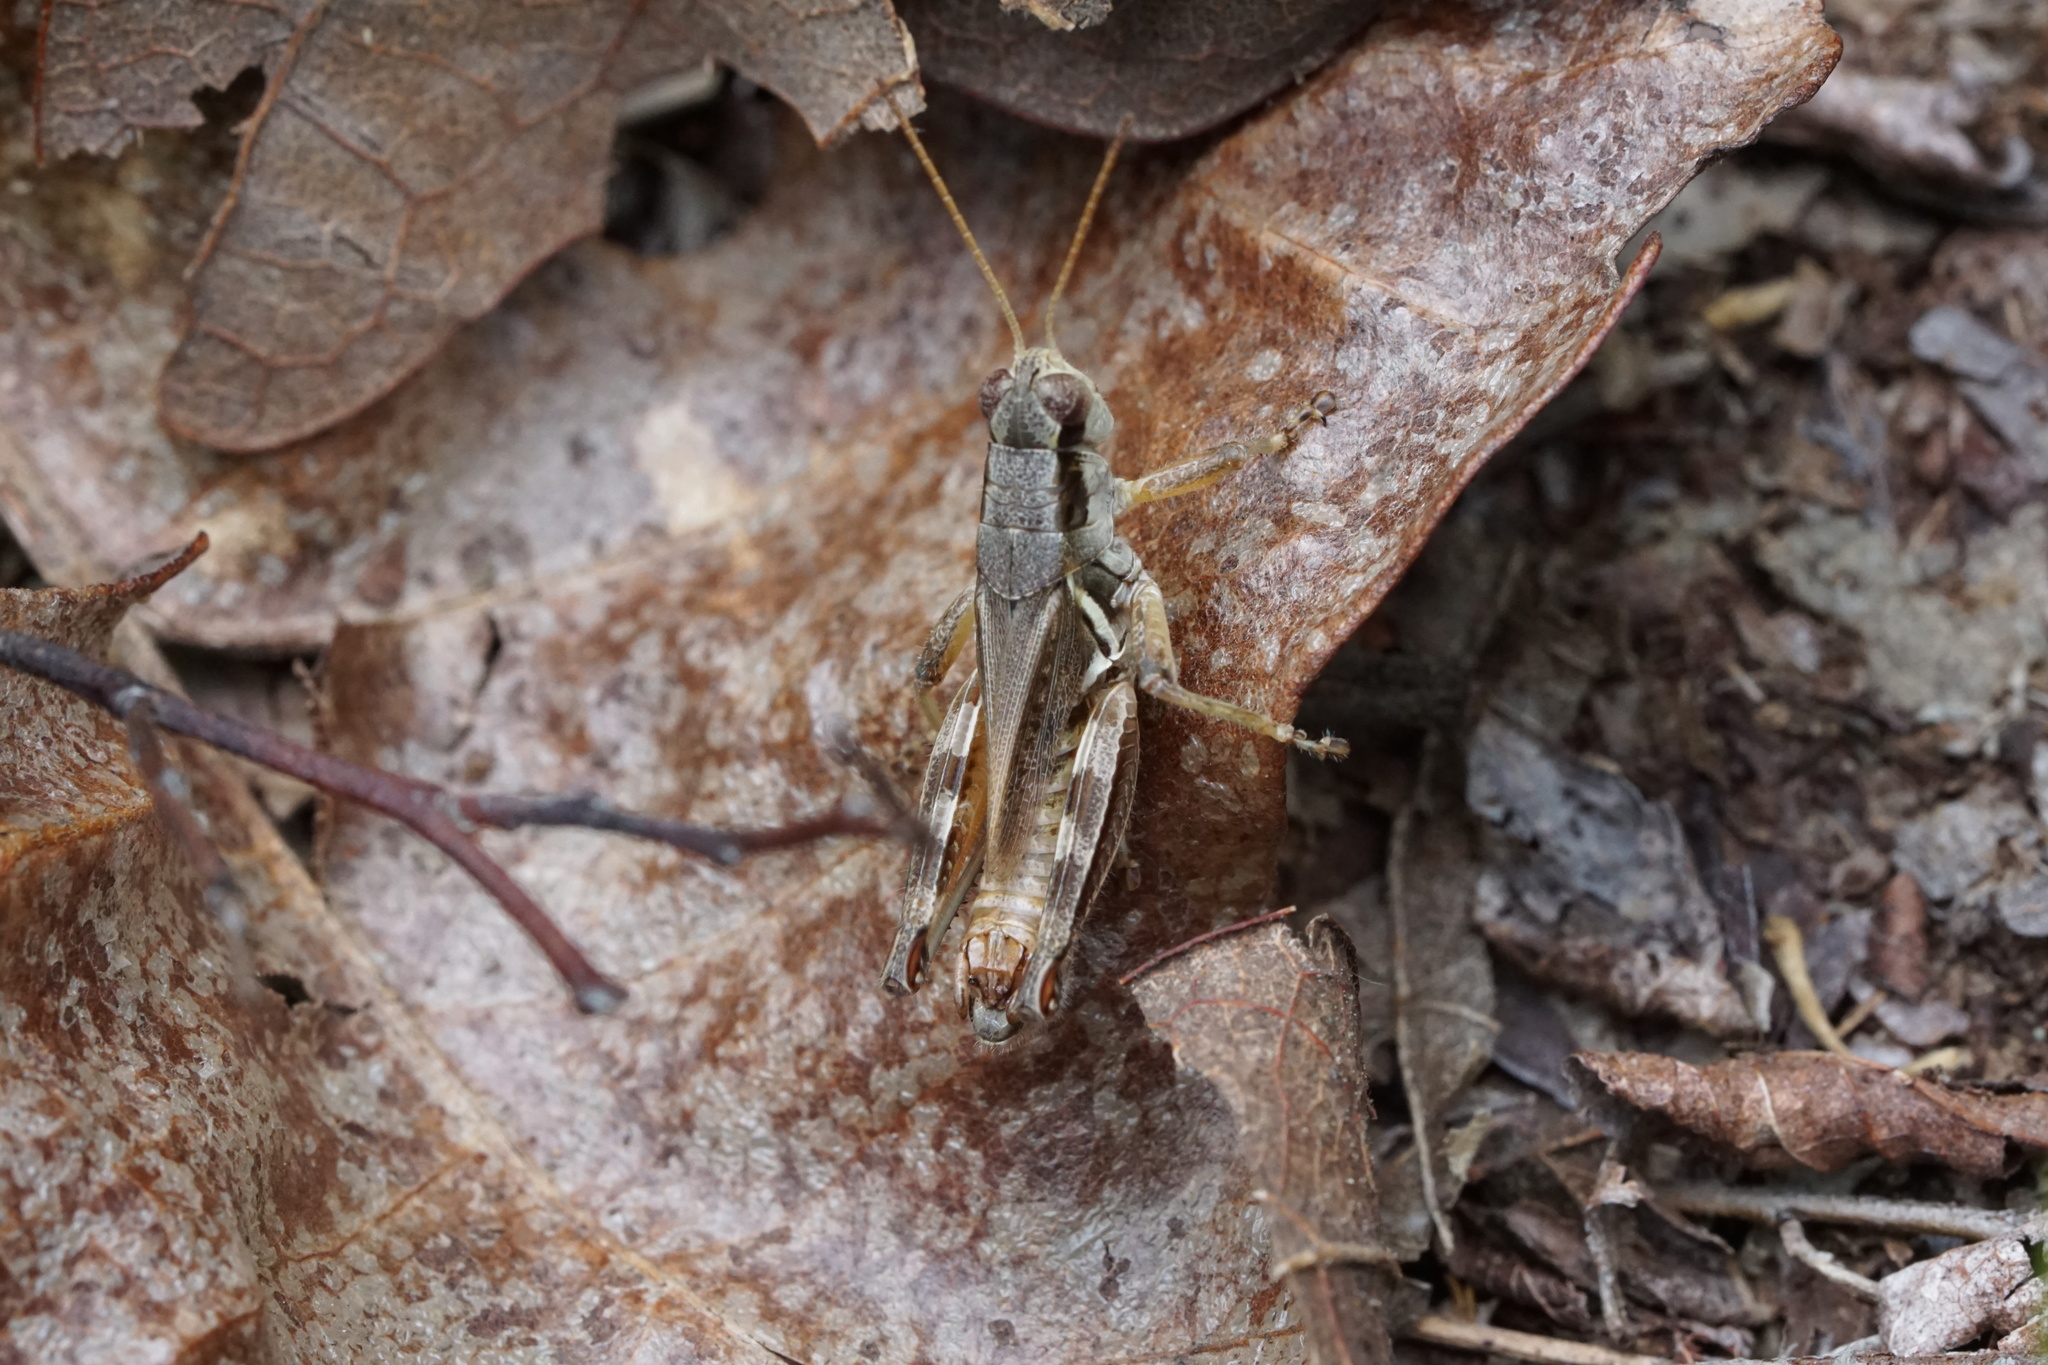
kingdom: Animalia
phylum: Arthropoda
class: Insecta
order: Orthoptera
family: Acrididae
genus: Melanoplus
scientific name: Melanoplus fasciatus
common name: Huckleberry locust
